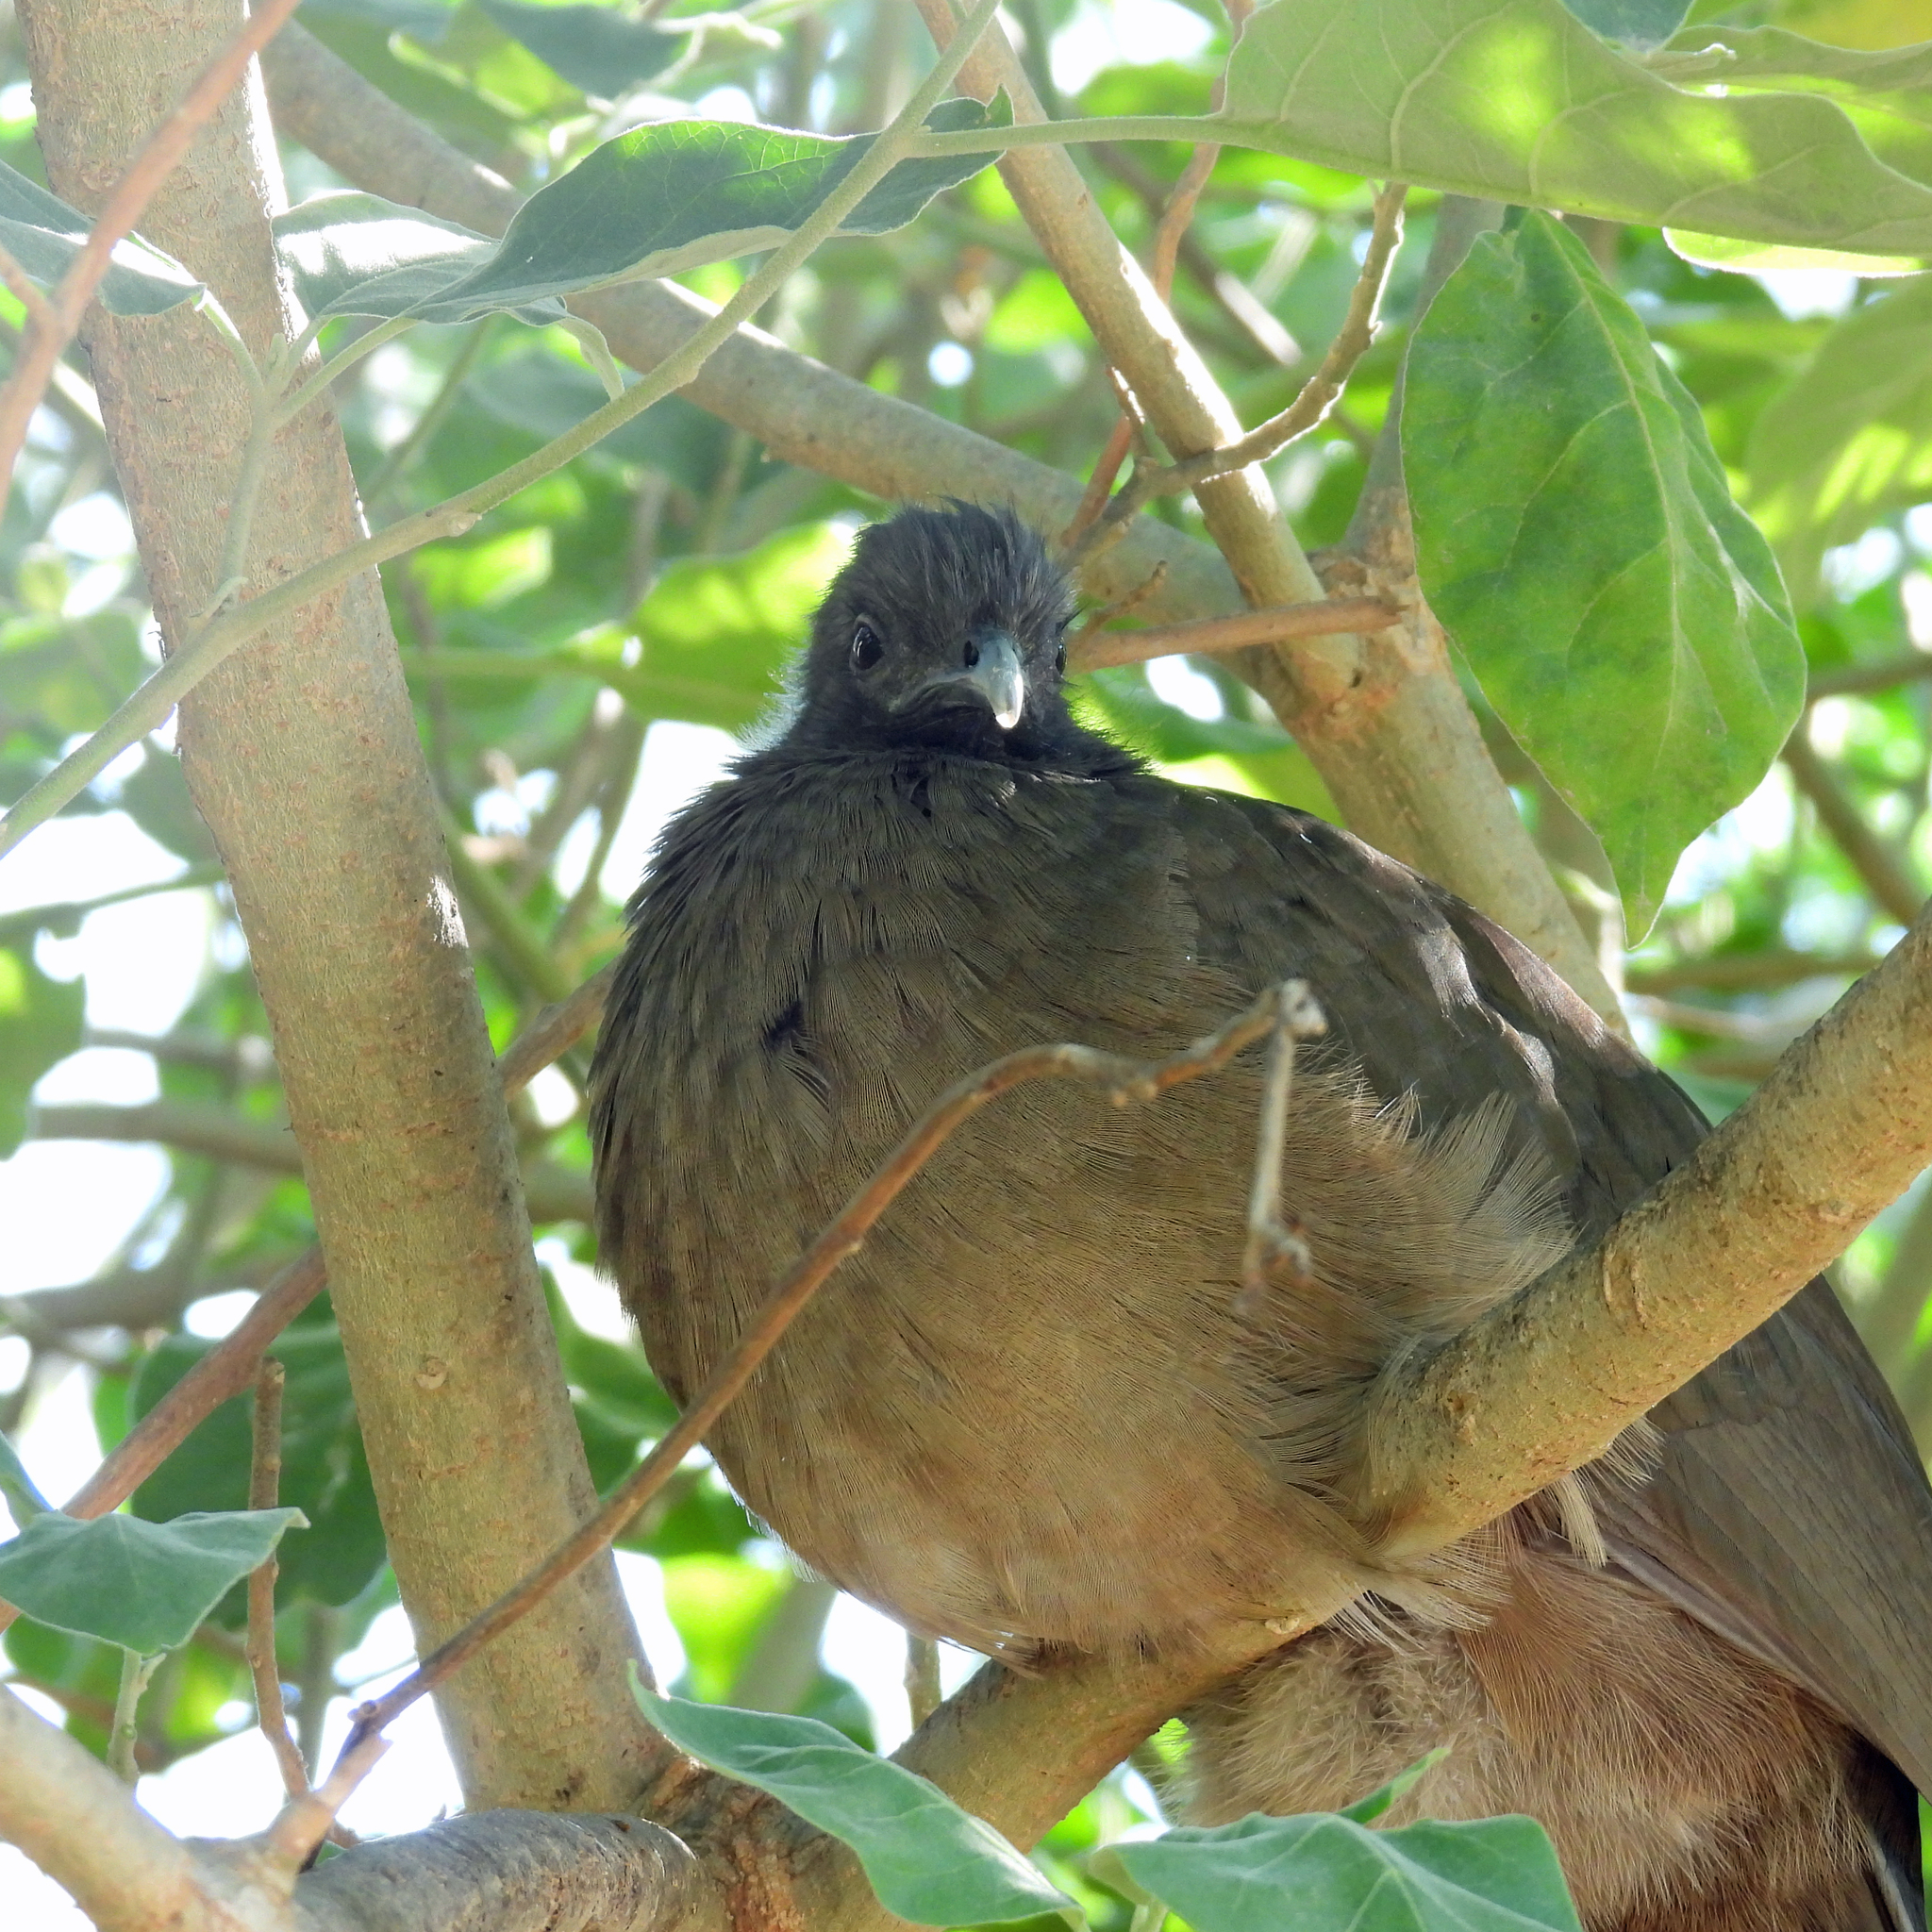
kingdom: Animalia
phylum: Chordata
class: Aves
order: Galliformes
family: Cracidae
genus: Ortalis
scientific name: Ortalis vetula
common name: Plain chachalaca
